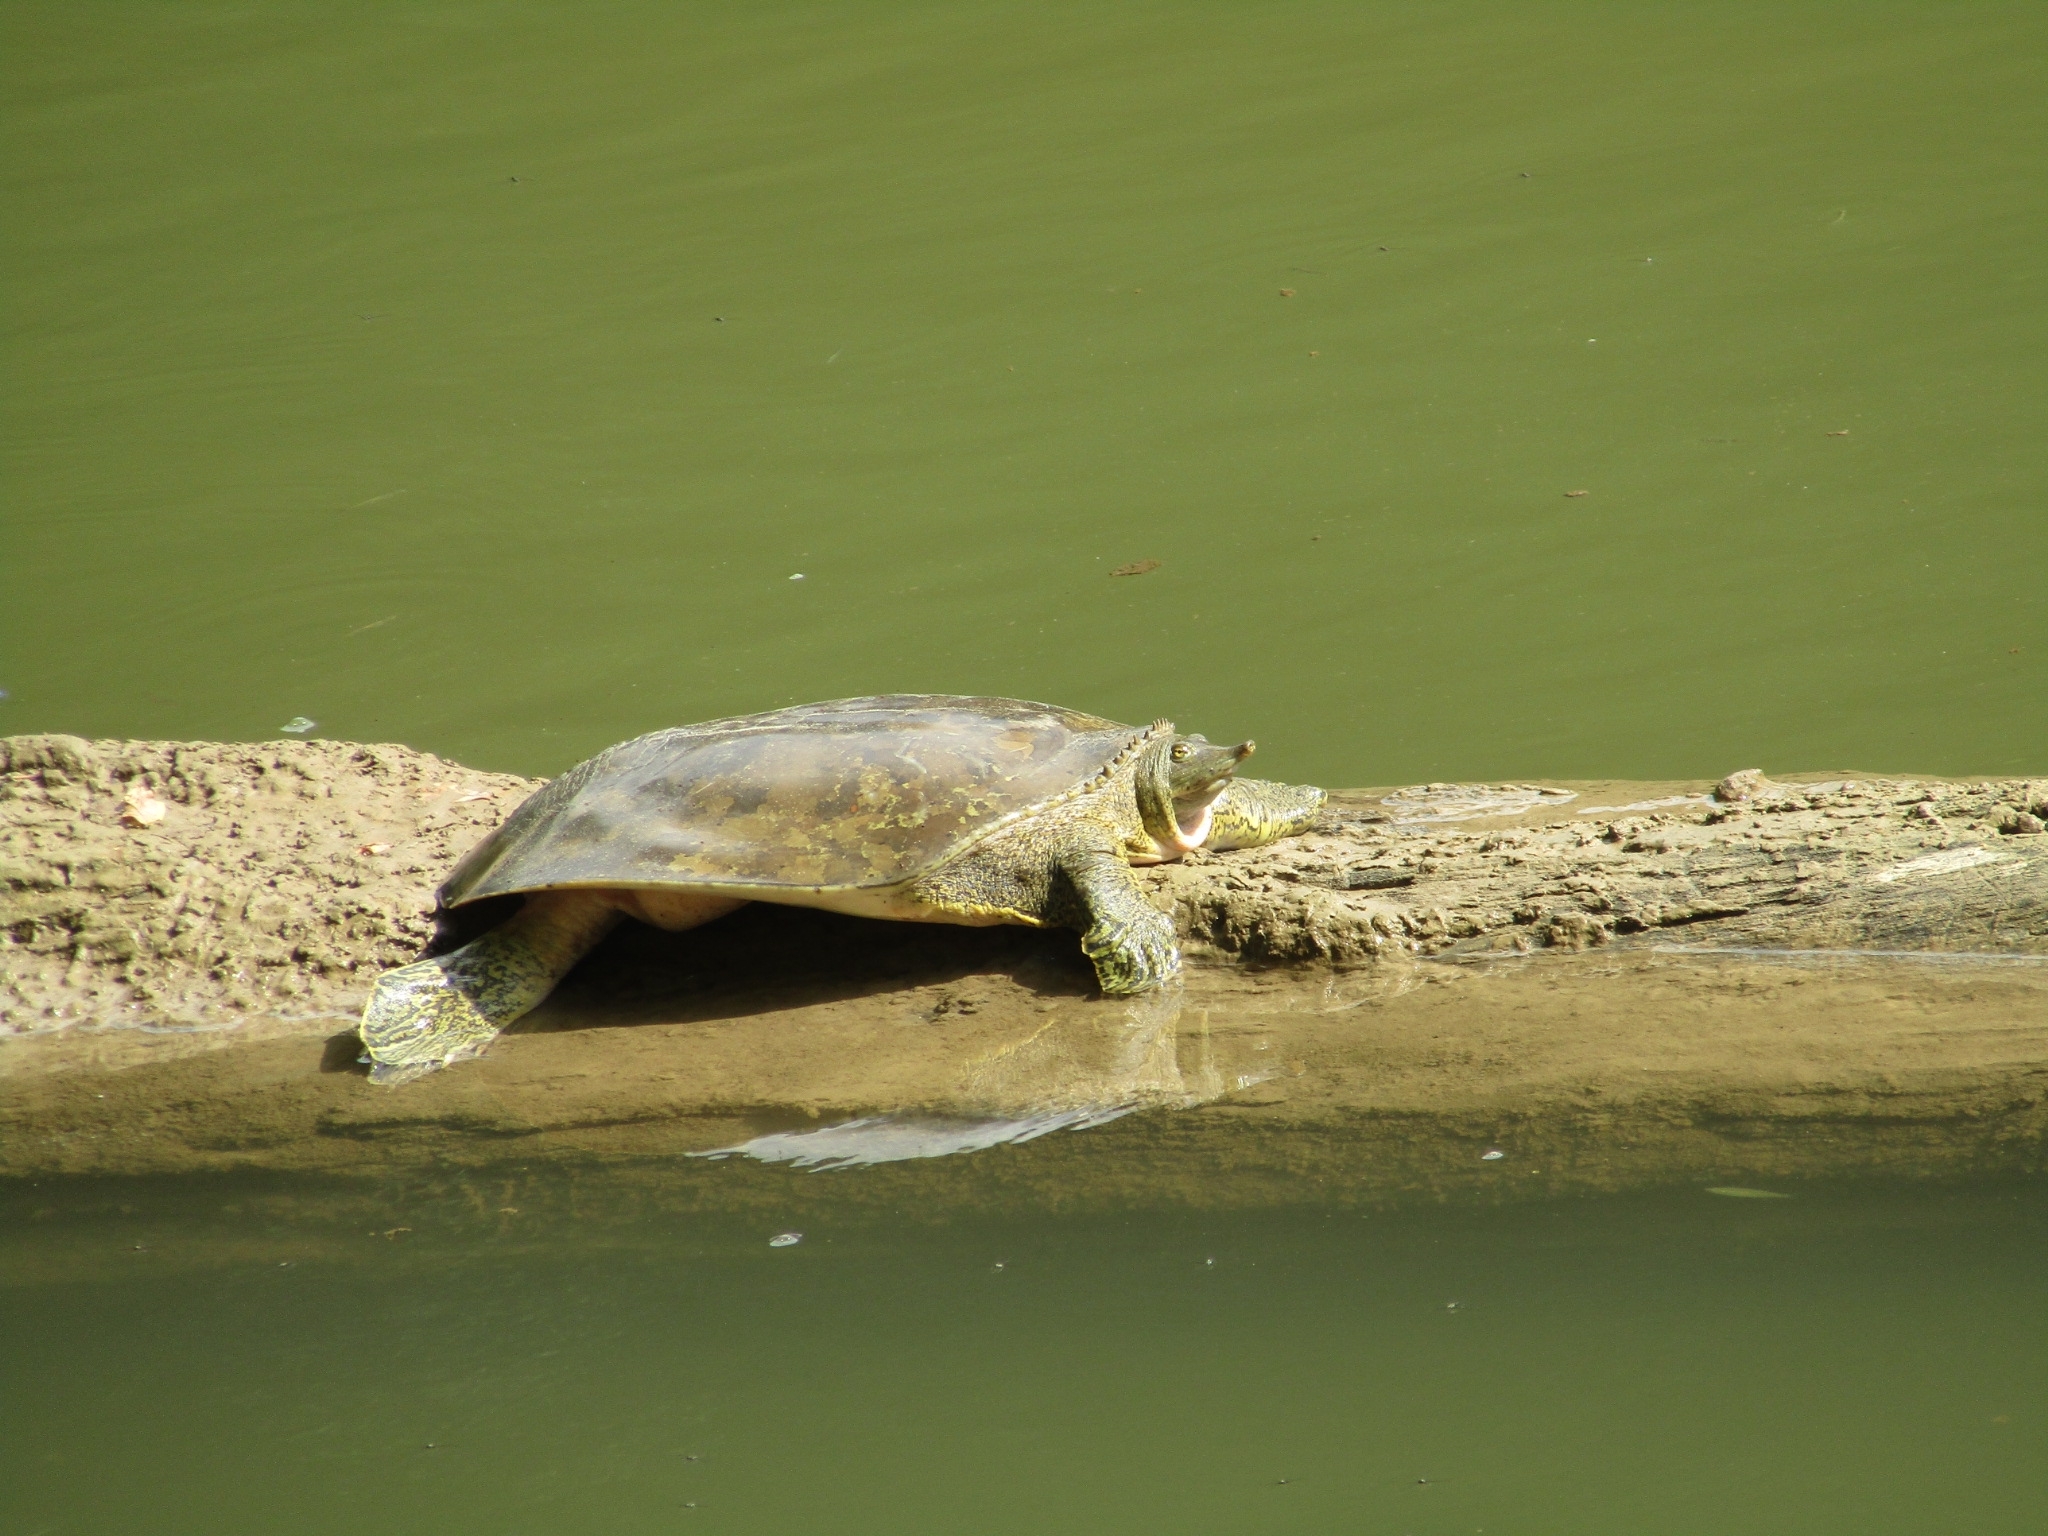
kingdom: Animalia
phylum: Chordata
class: Testudines
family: Trionychidae
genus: Apalone
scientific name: Apalone spinifera
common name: Spiny softshell turtle
